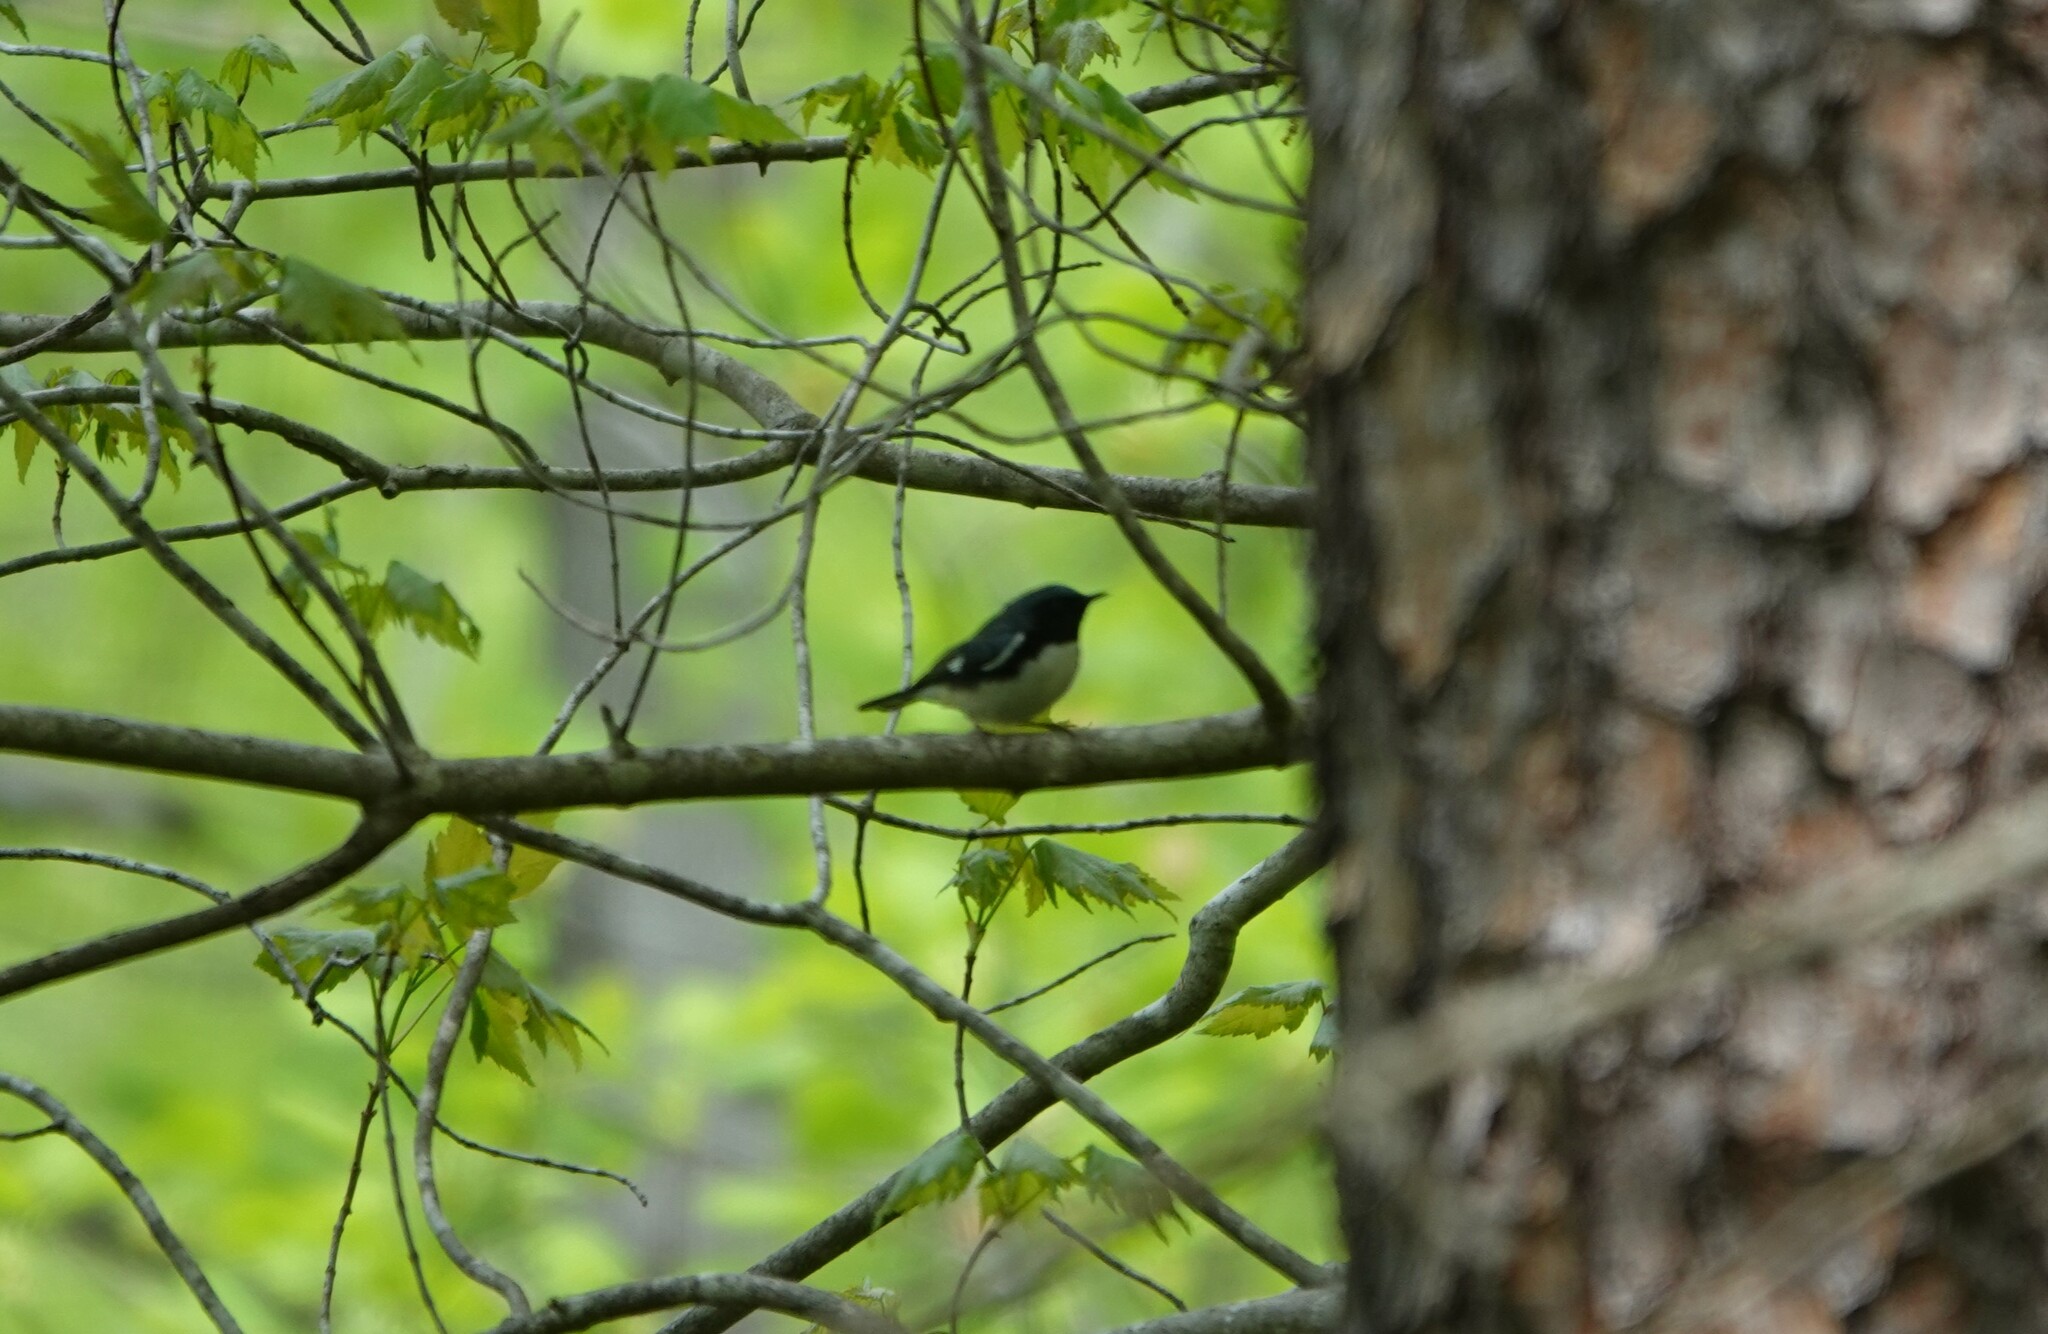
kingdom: Animalia
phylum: Chordata
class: Aves
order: Passeriformes
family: Parulidae
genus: Setophaga
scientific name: Setophaga caerulescens
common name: Black-throated blue warbler
